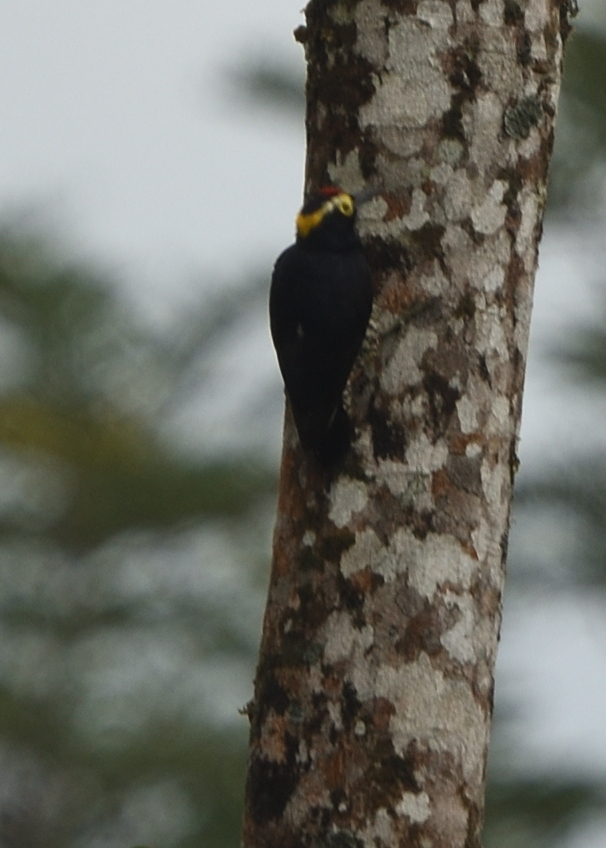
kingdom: Animalia
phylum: Chordata
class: Aves
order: Piciformes
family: Picidae
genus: Melanerpes
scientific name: Melanerpes cruentatus
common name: Yellow-tufted woodpecker
